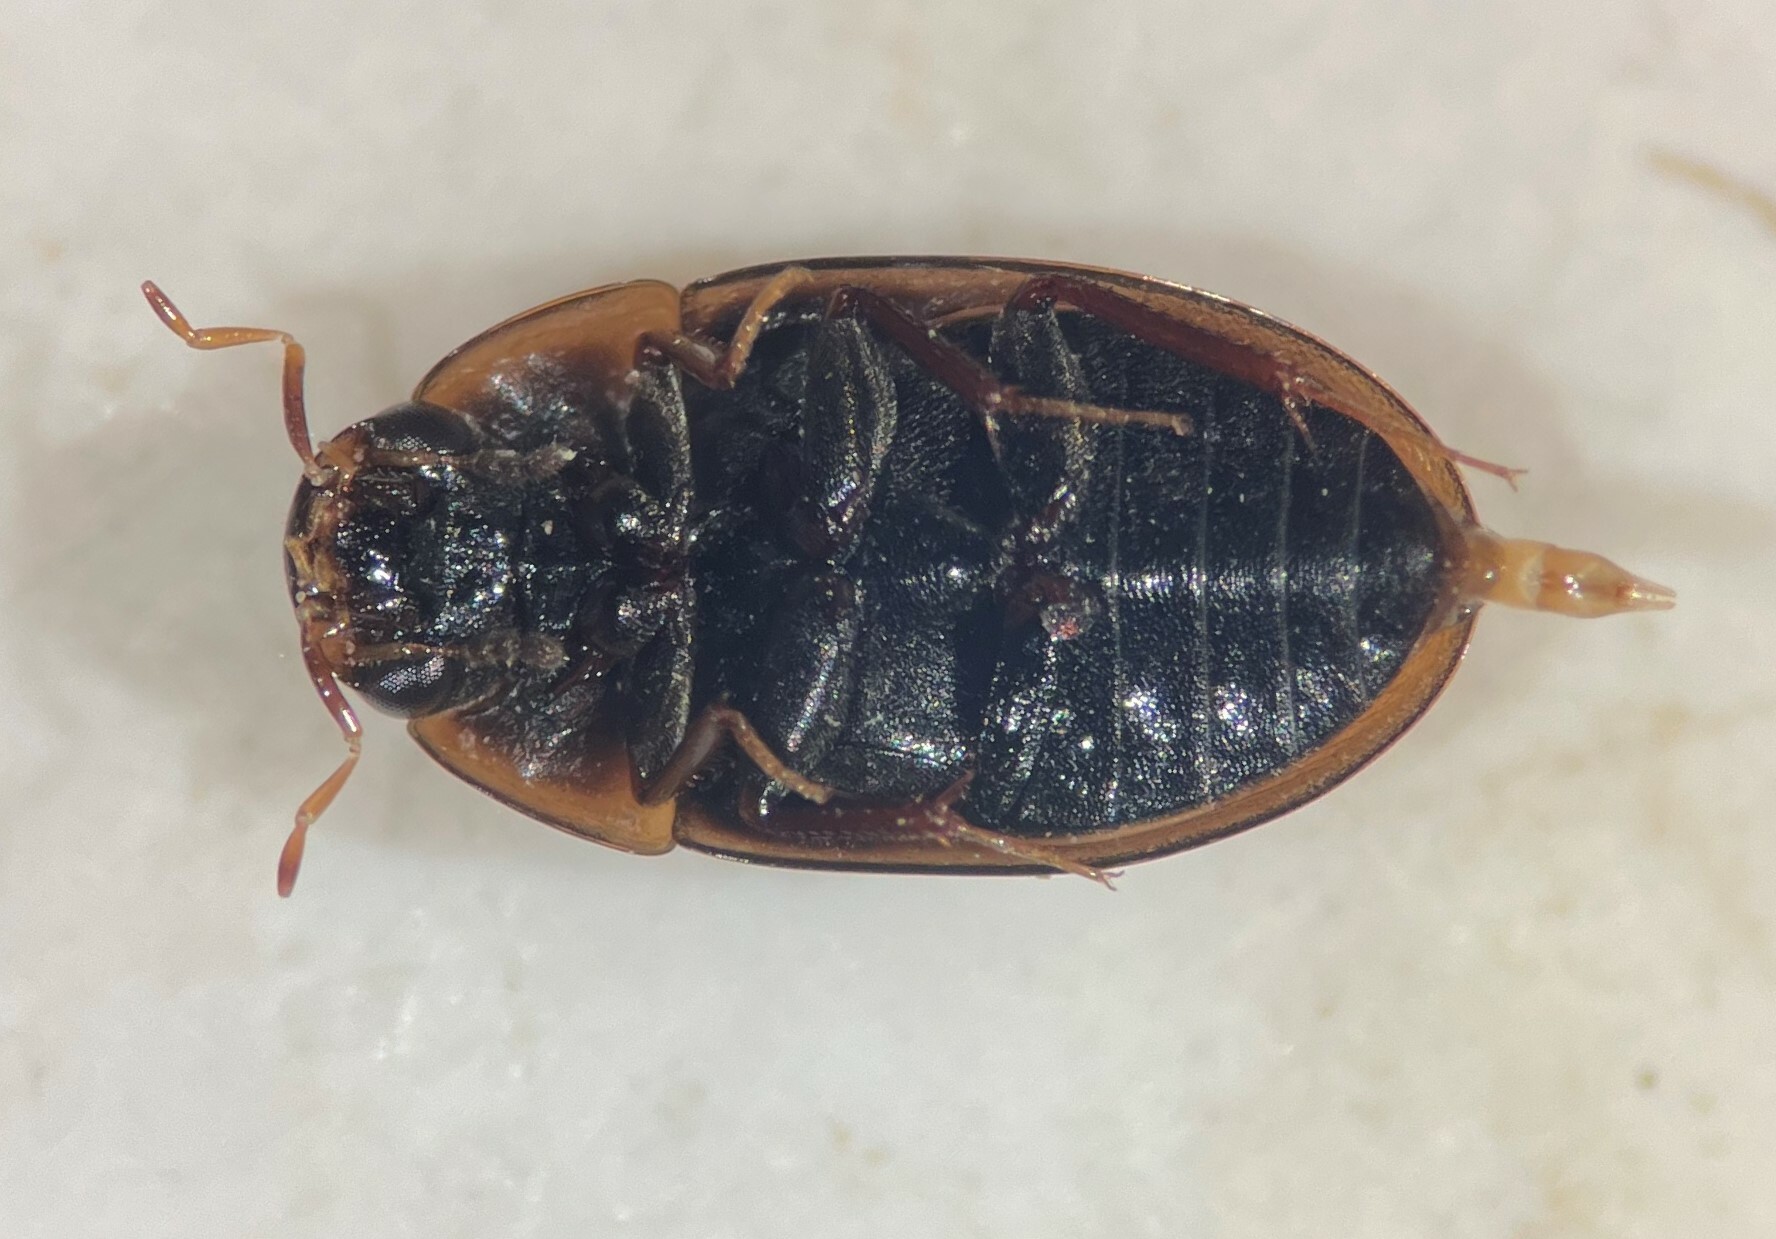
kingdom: Animalia
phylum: Arthropoda
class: Insecta
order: Coleoptera
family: Hydrophilidae
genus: Enochrus
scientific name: Enochrus ochraceus
